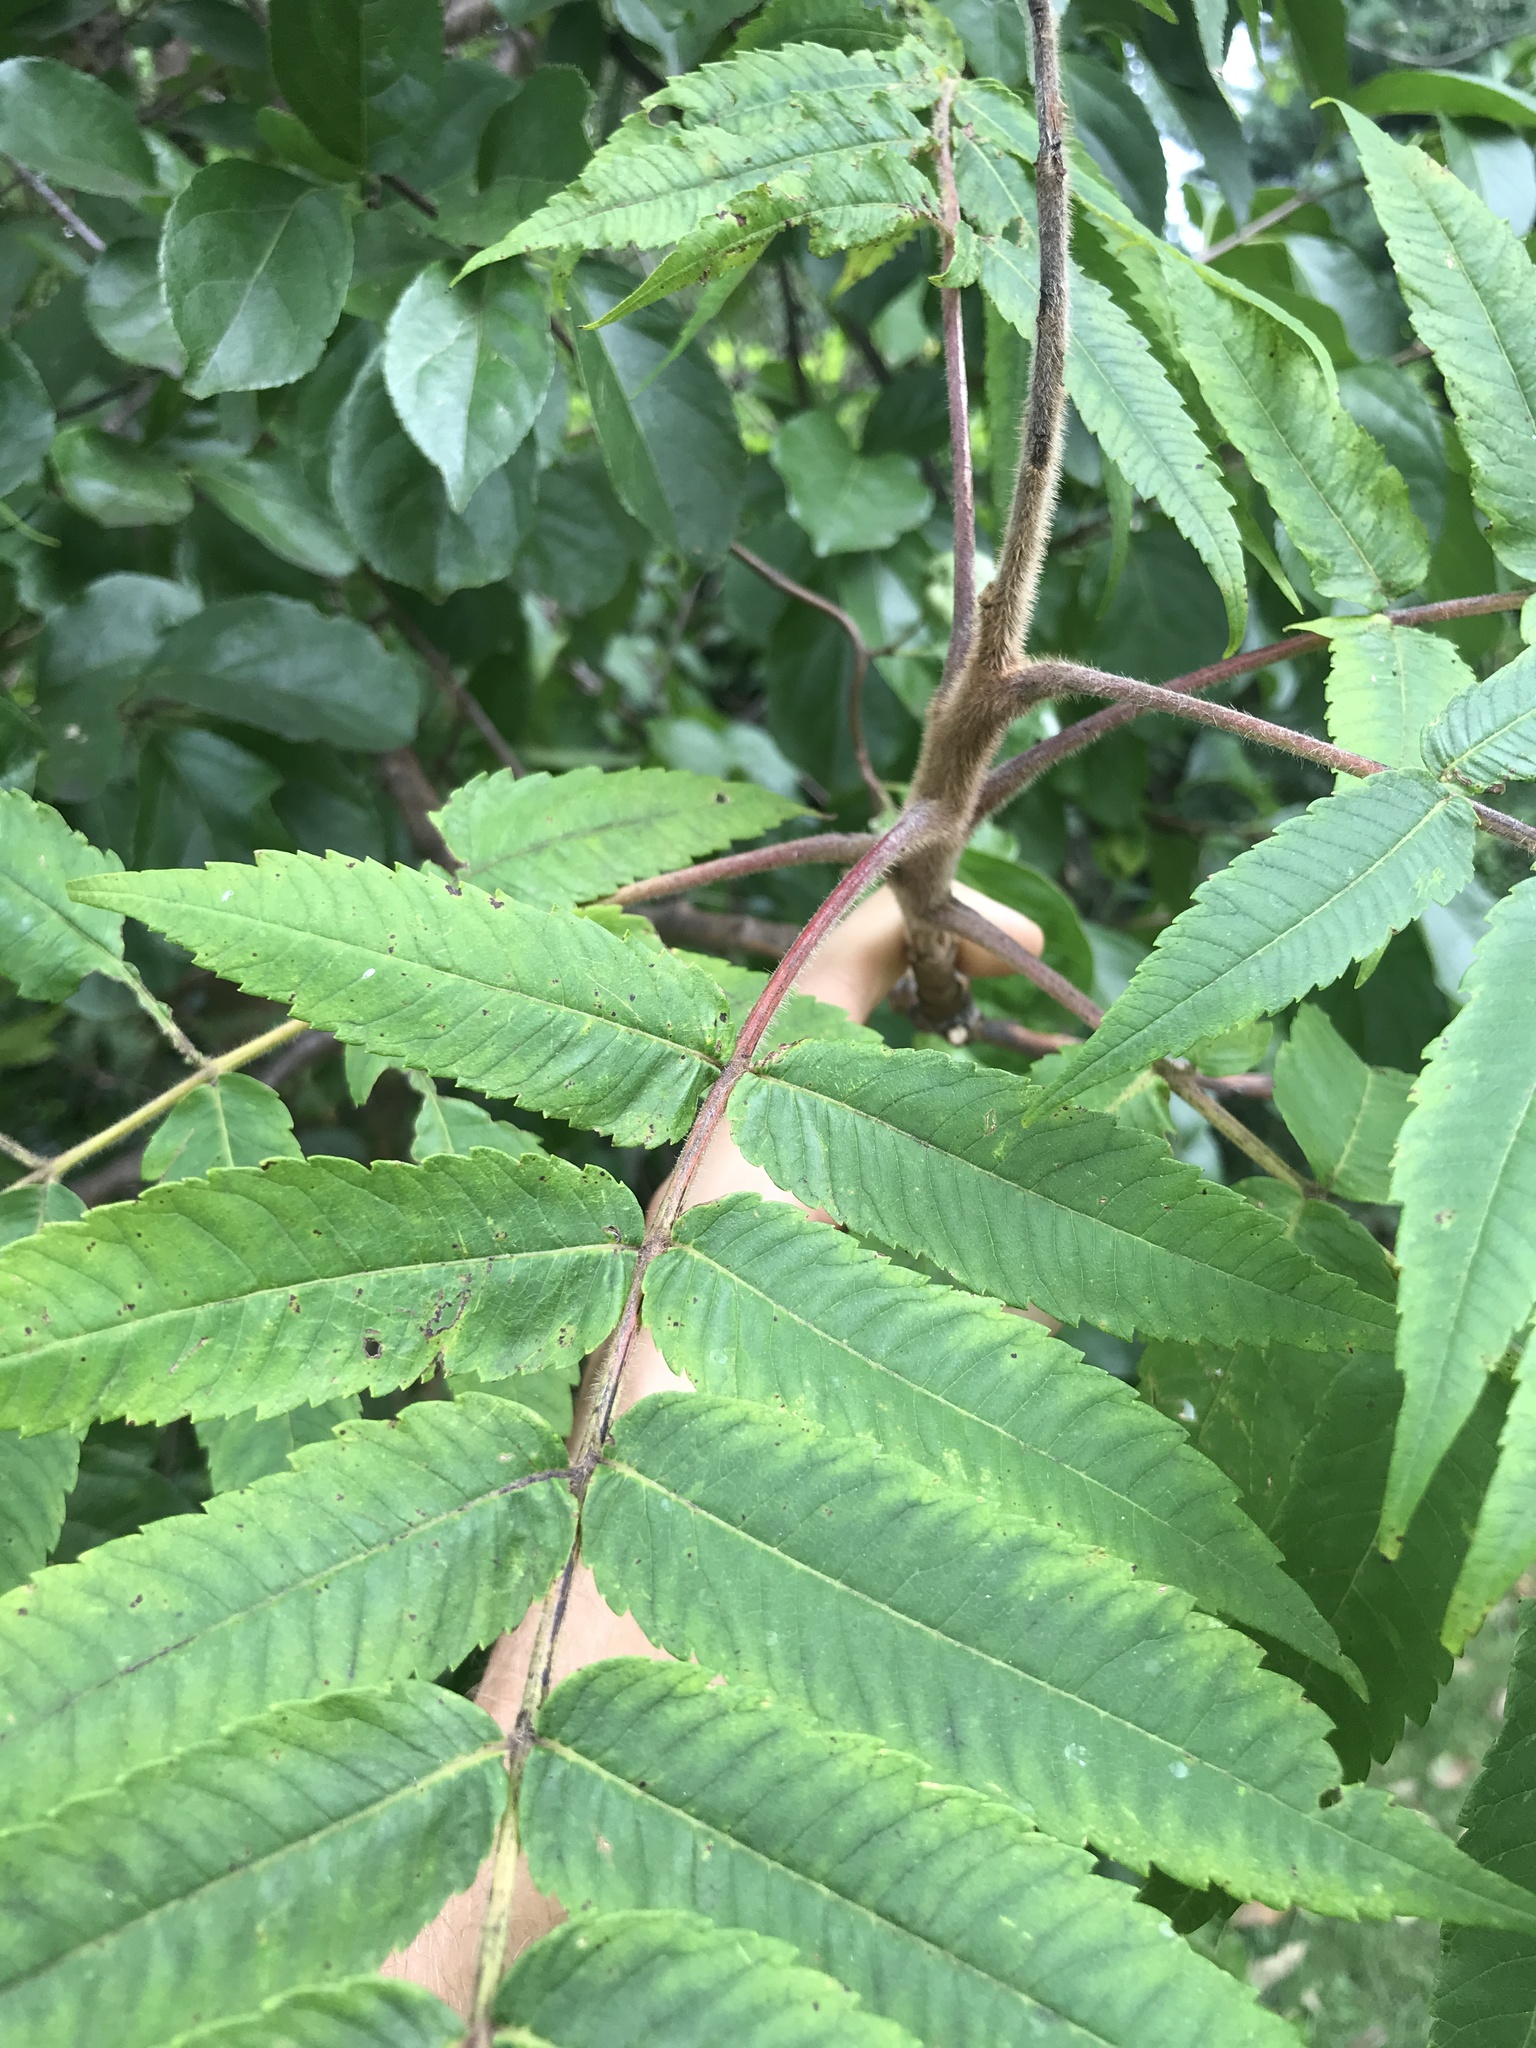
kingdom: Plantae
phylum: Tracheophyta
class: Magnoliopsida
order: Sapindales
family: Anacardiaceae
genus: Rhus
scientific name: Rhus typhina
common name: Staghorn sumac
